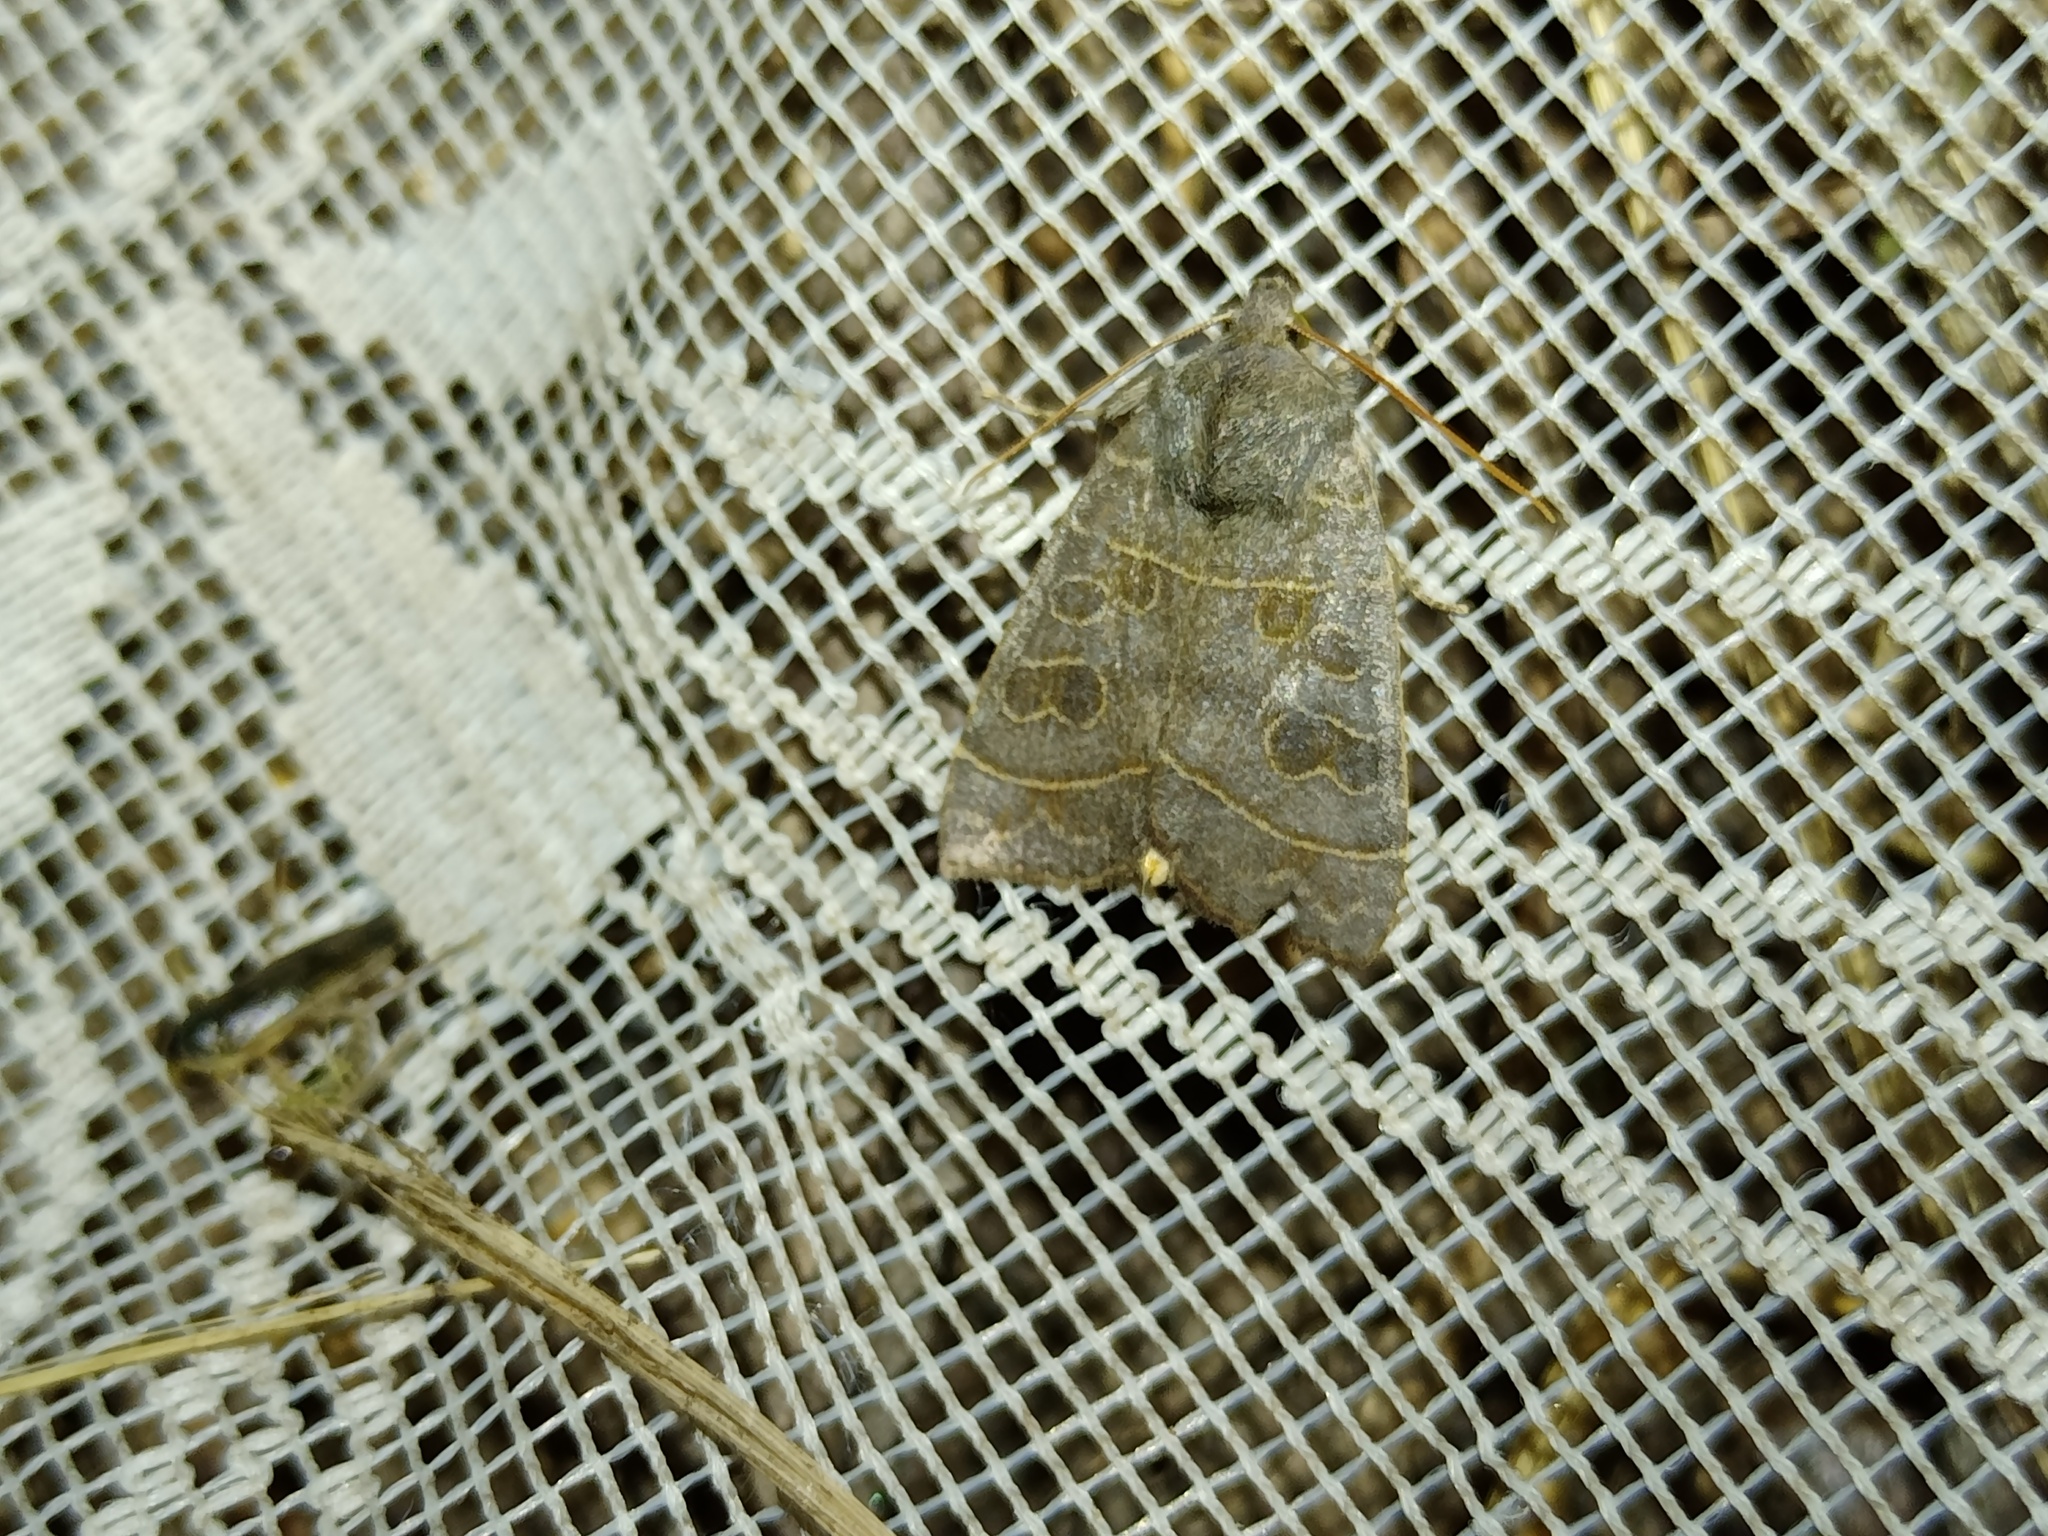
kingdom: Animalia
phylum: Arthropoda
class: Insecta
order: Lepidoptera
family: Noctuidae
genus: Ipimorpha
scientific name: Ipimorpha subtusa
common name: Olive
